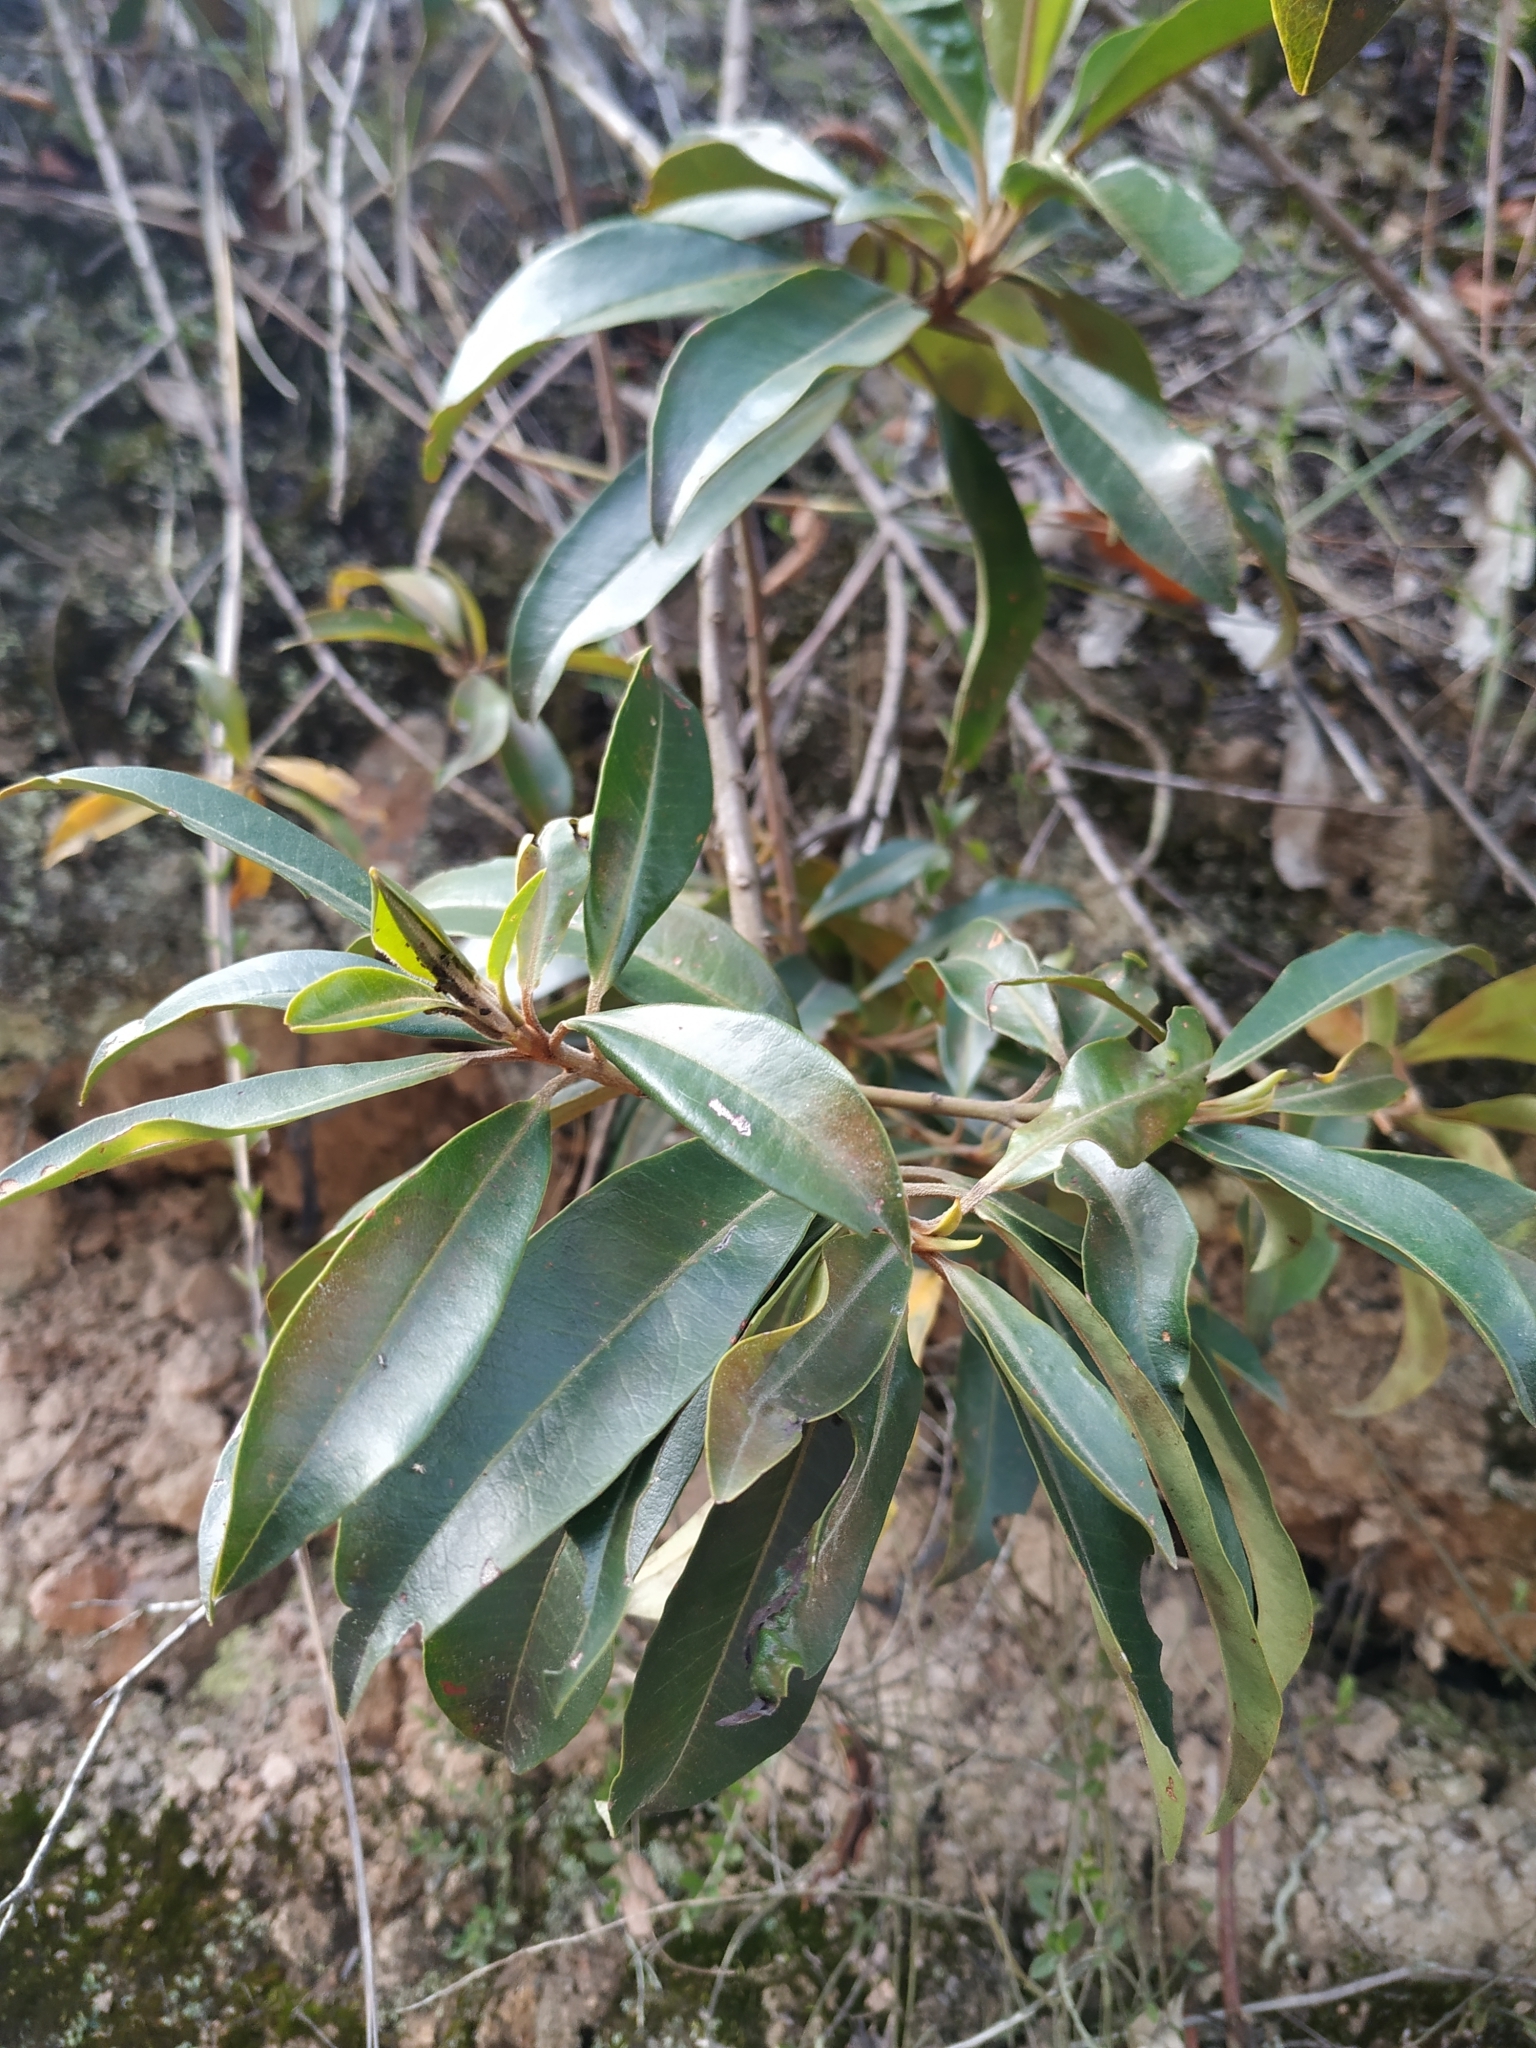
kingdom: Plantae
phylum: Tracheophyta
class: Magnoliopsida
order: Ericales
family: Primulaceae
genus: Myrsine
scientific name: Myrsine coriacea
